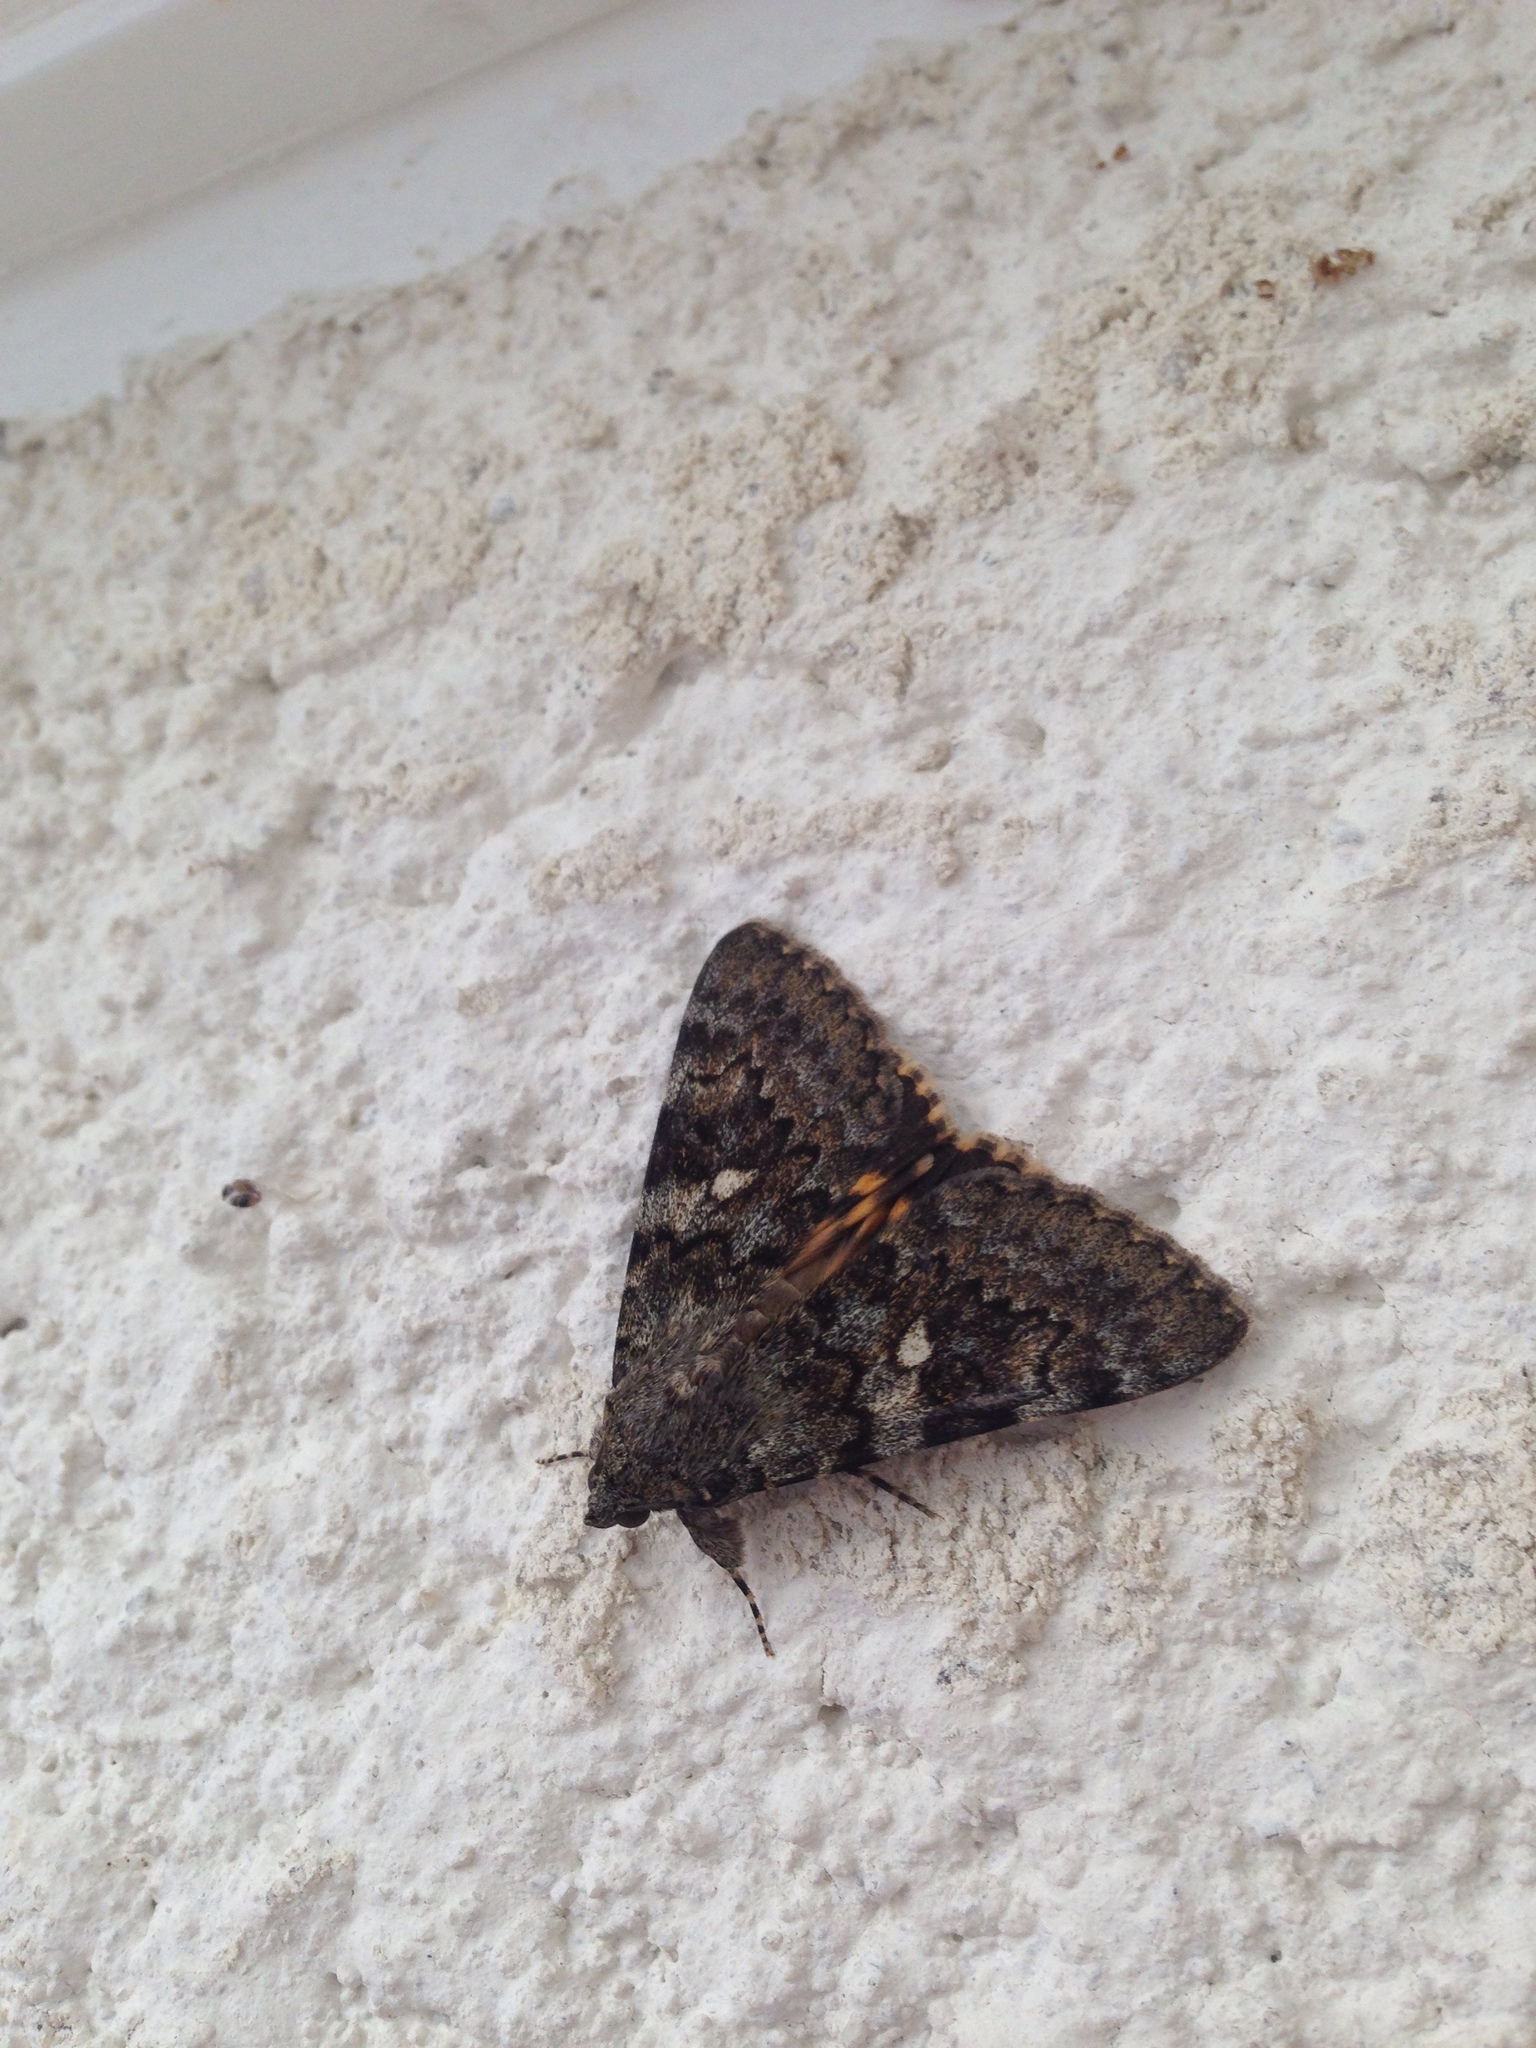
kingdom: Animalia
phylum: Arthropoda
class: Insecta
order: Lepidoptera
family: Erebidae
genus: Catocala
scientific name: Catocala nymphaea
